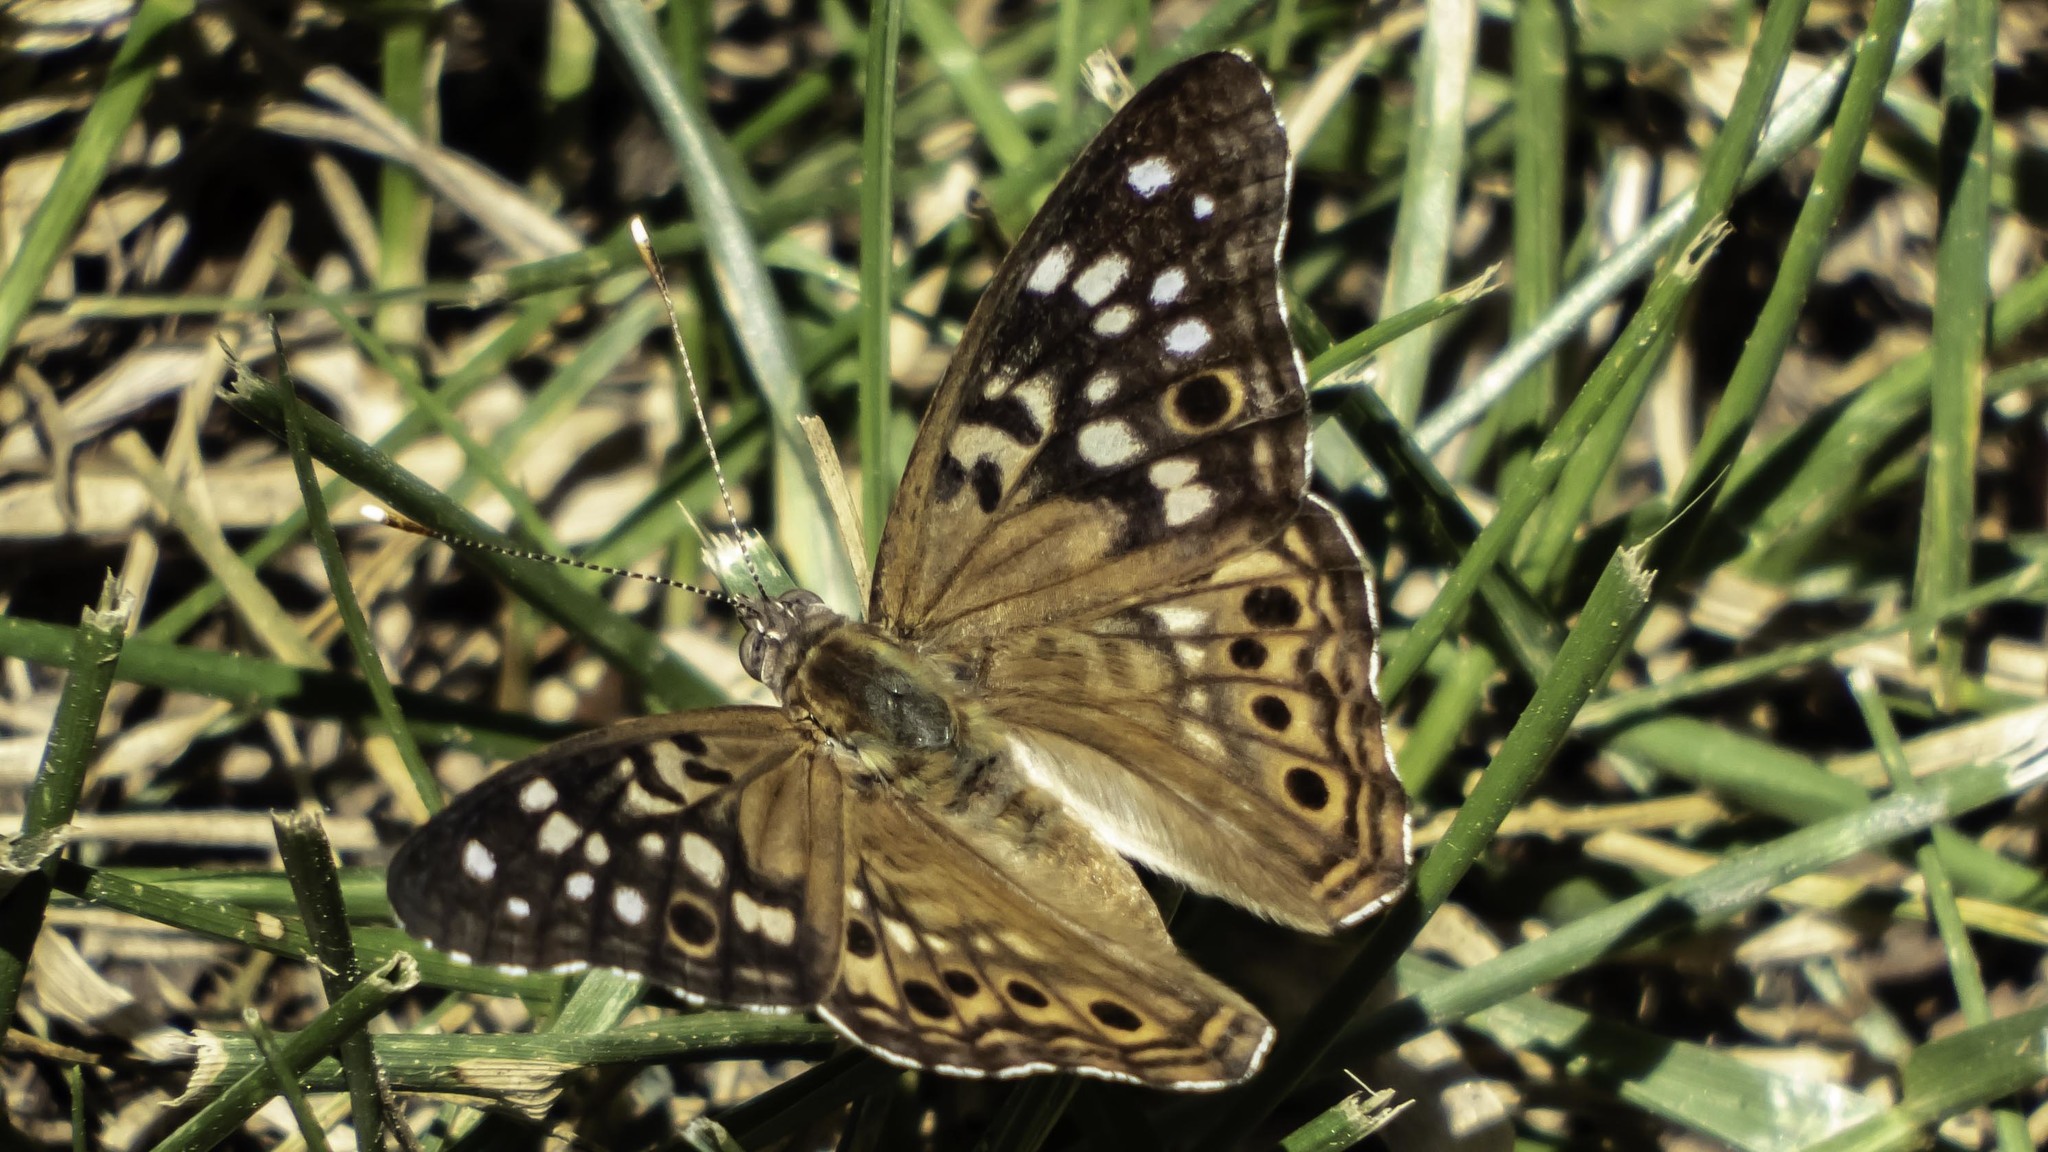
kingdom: Animalia
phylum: Arthropoda
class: Insecta
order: Lepidoptera
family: Nymphalidae
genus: Asterocampa
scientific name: Asterocampa celtis
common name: Hackberry emperor
